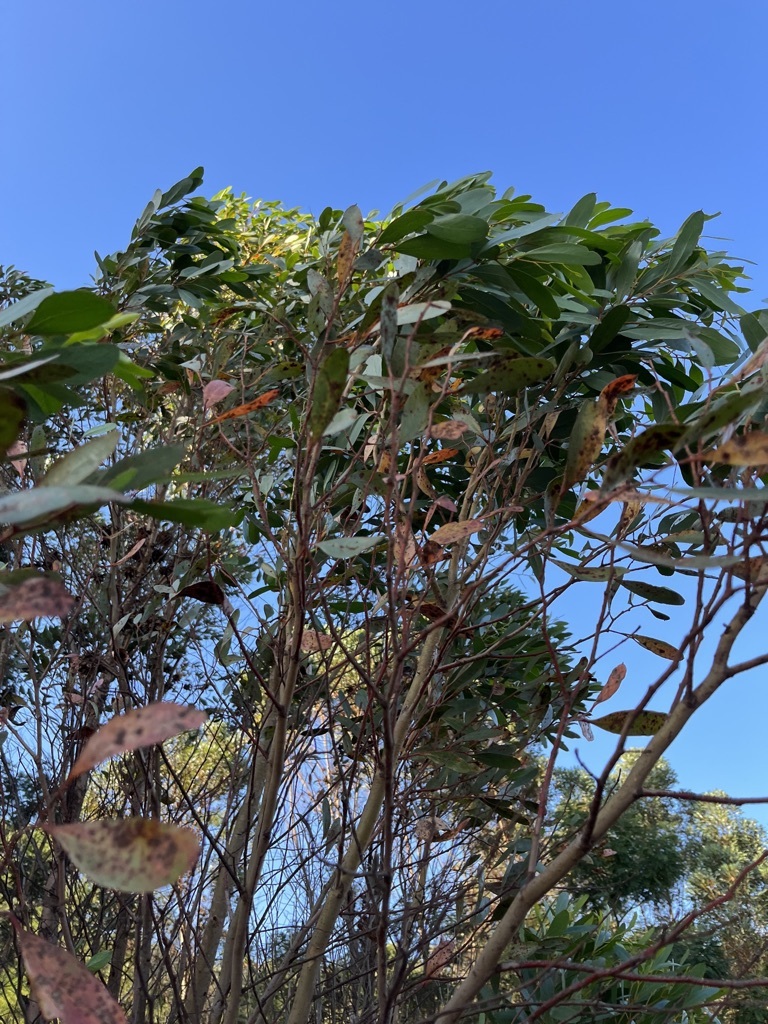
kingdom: Plantae
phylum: Tracheophyta
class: Magnoliopsida
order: Myrtales
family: Myrtaceae
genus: Eucalyptus
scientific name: Eucalyptus conferruminata
